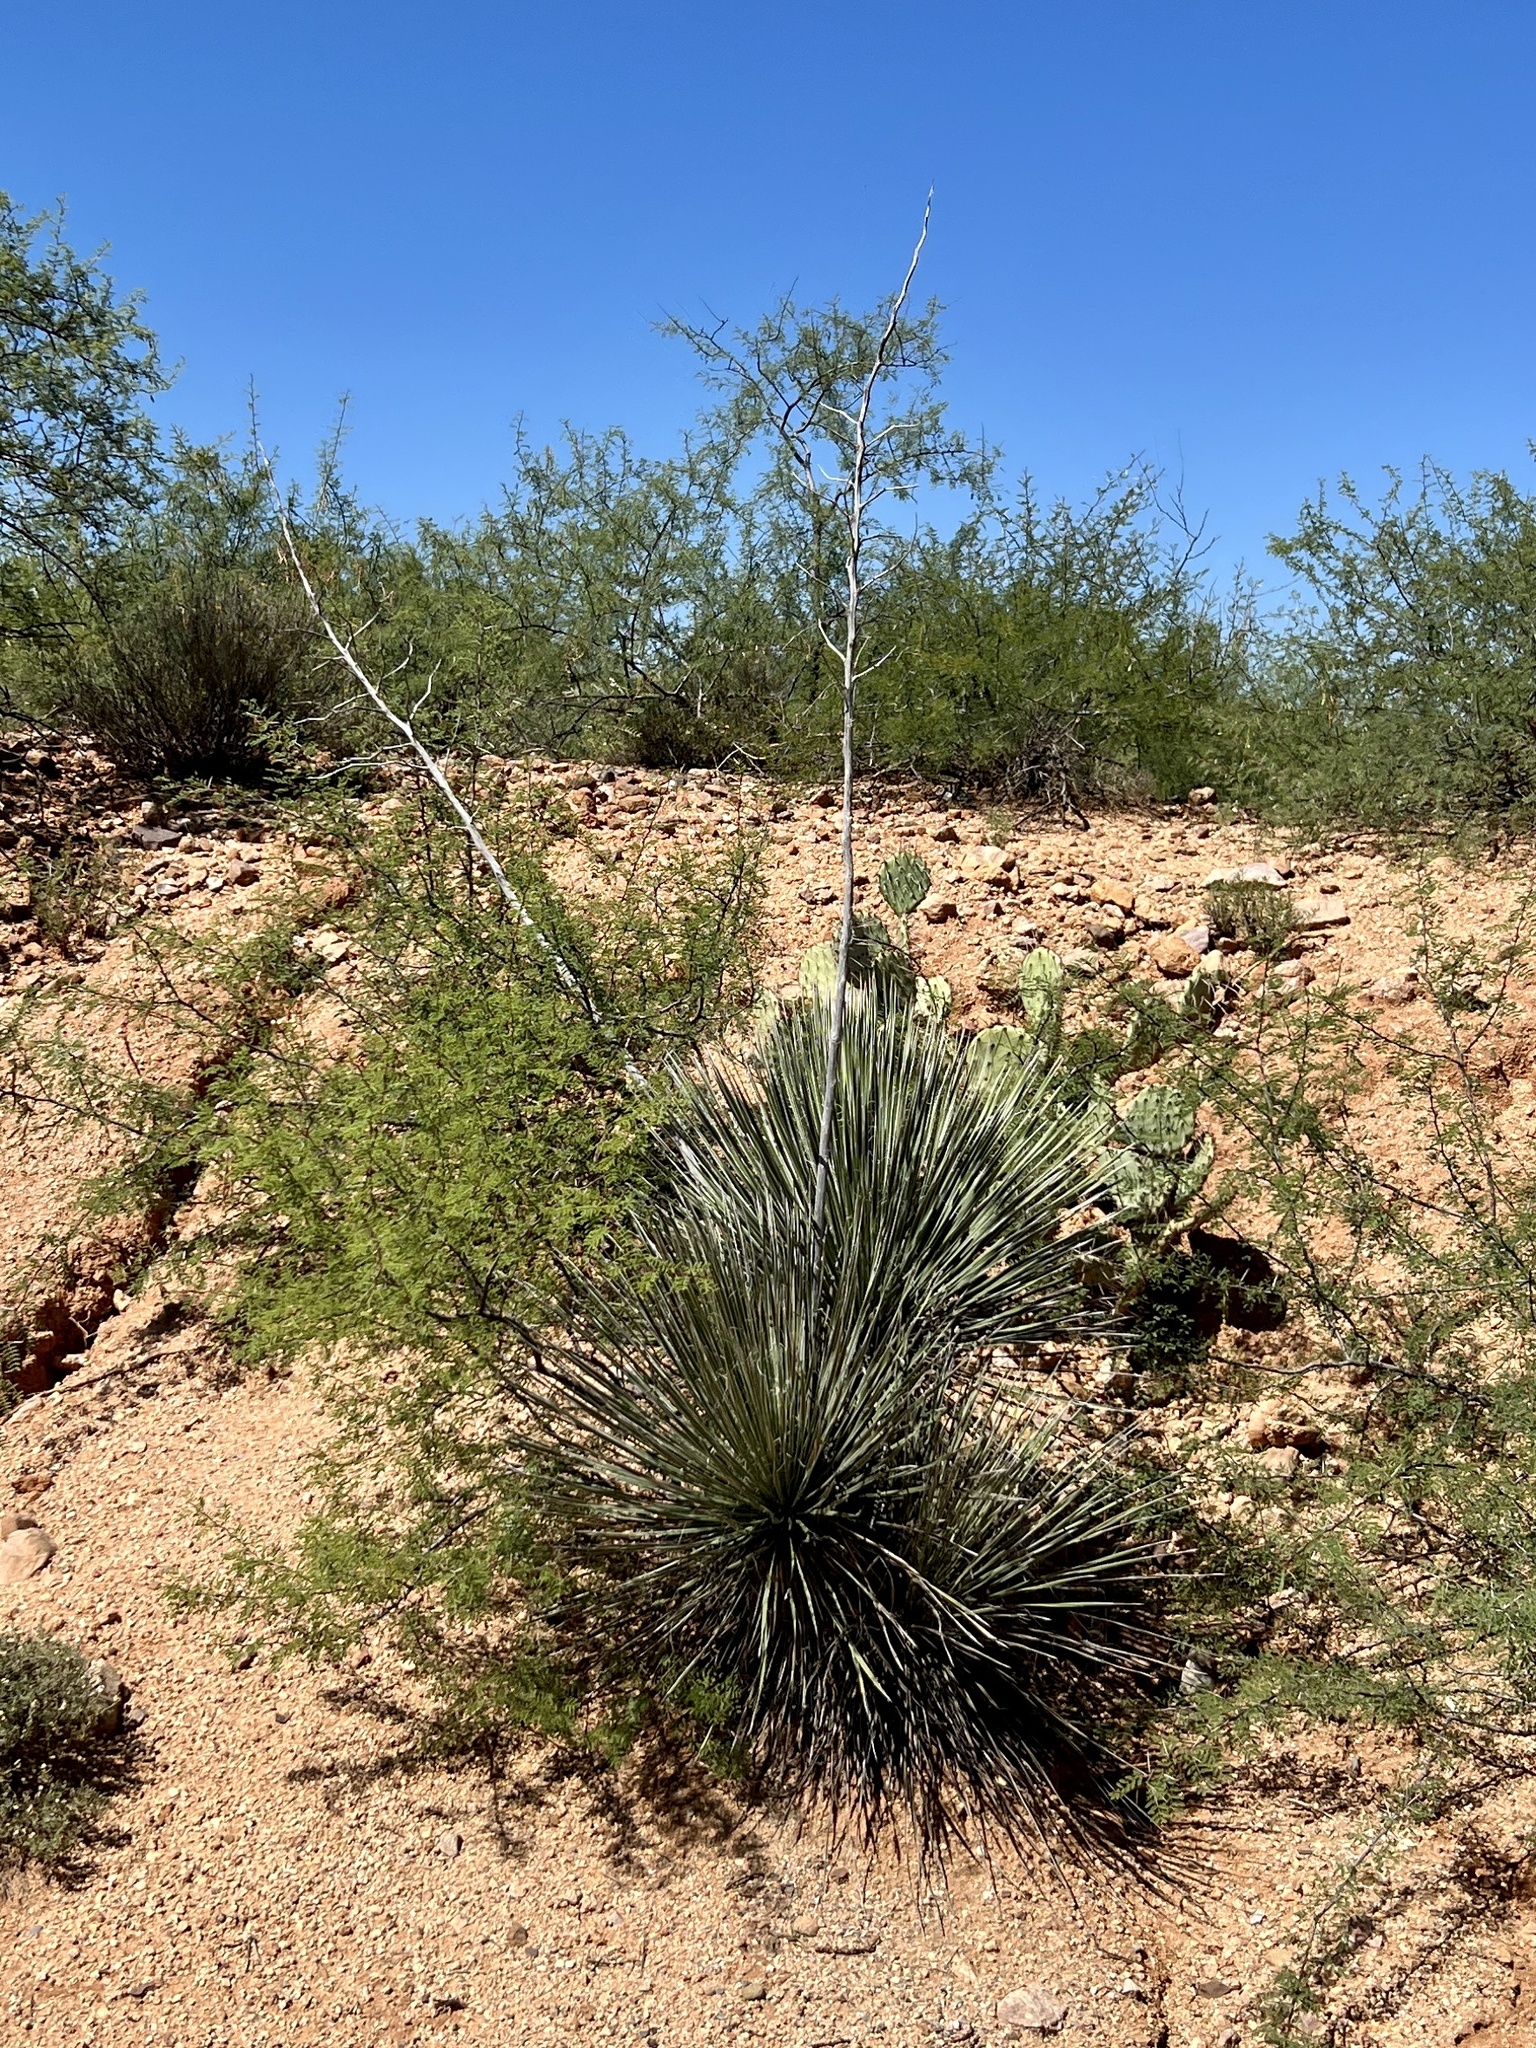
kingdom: Plantae
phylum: Tracheophyta
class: Liliopsida
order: Asparagales
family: Asparagaceae
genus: Yucca
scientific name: Yucca elata
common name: Palmella
